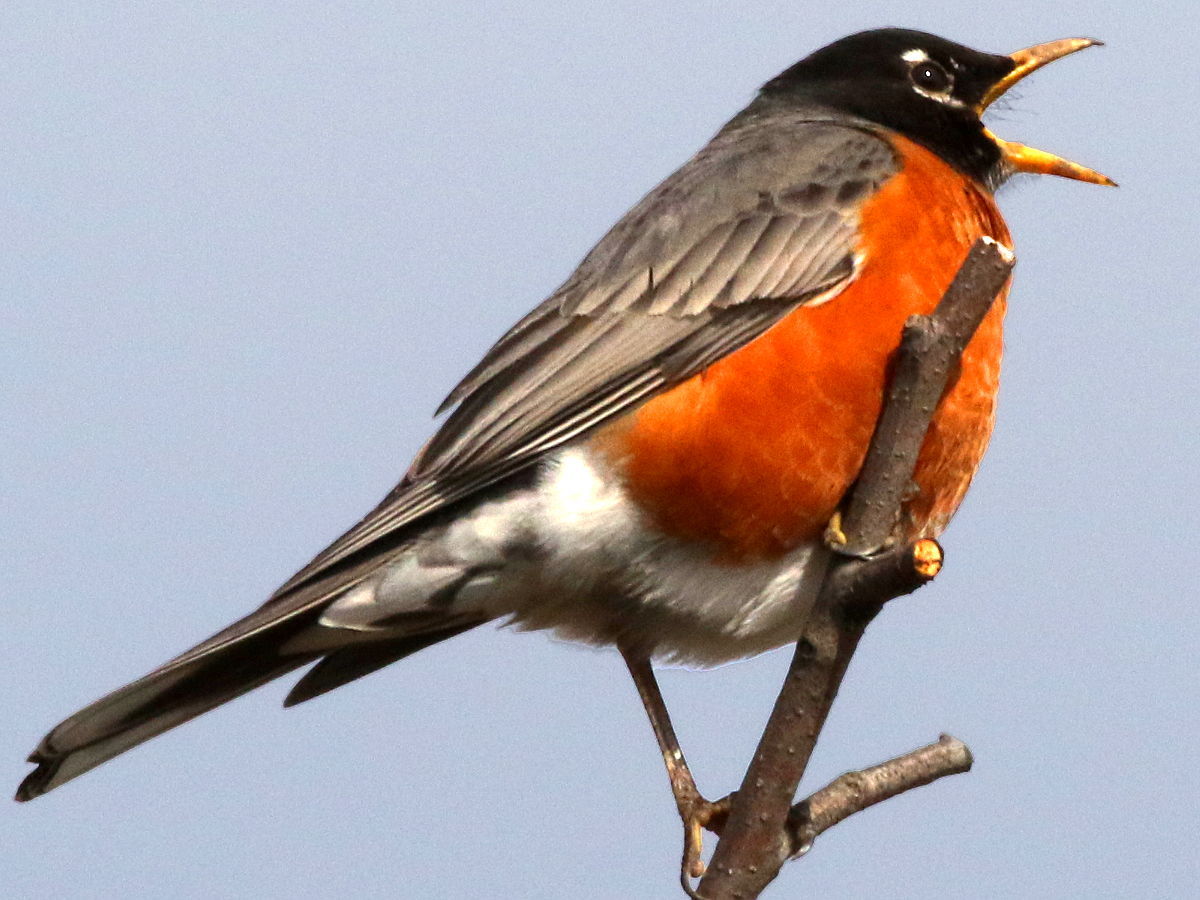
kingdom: Animalia
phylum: Chordata
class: Aves
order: Passeriformes
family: Turdidae
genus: Turdus
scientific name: Turdus migratorius
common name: American robin
